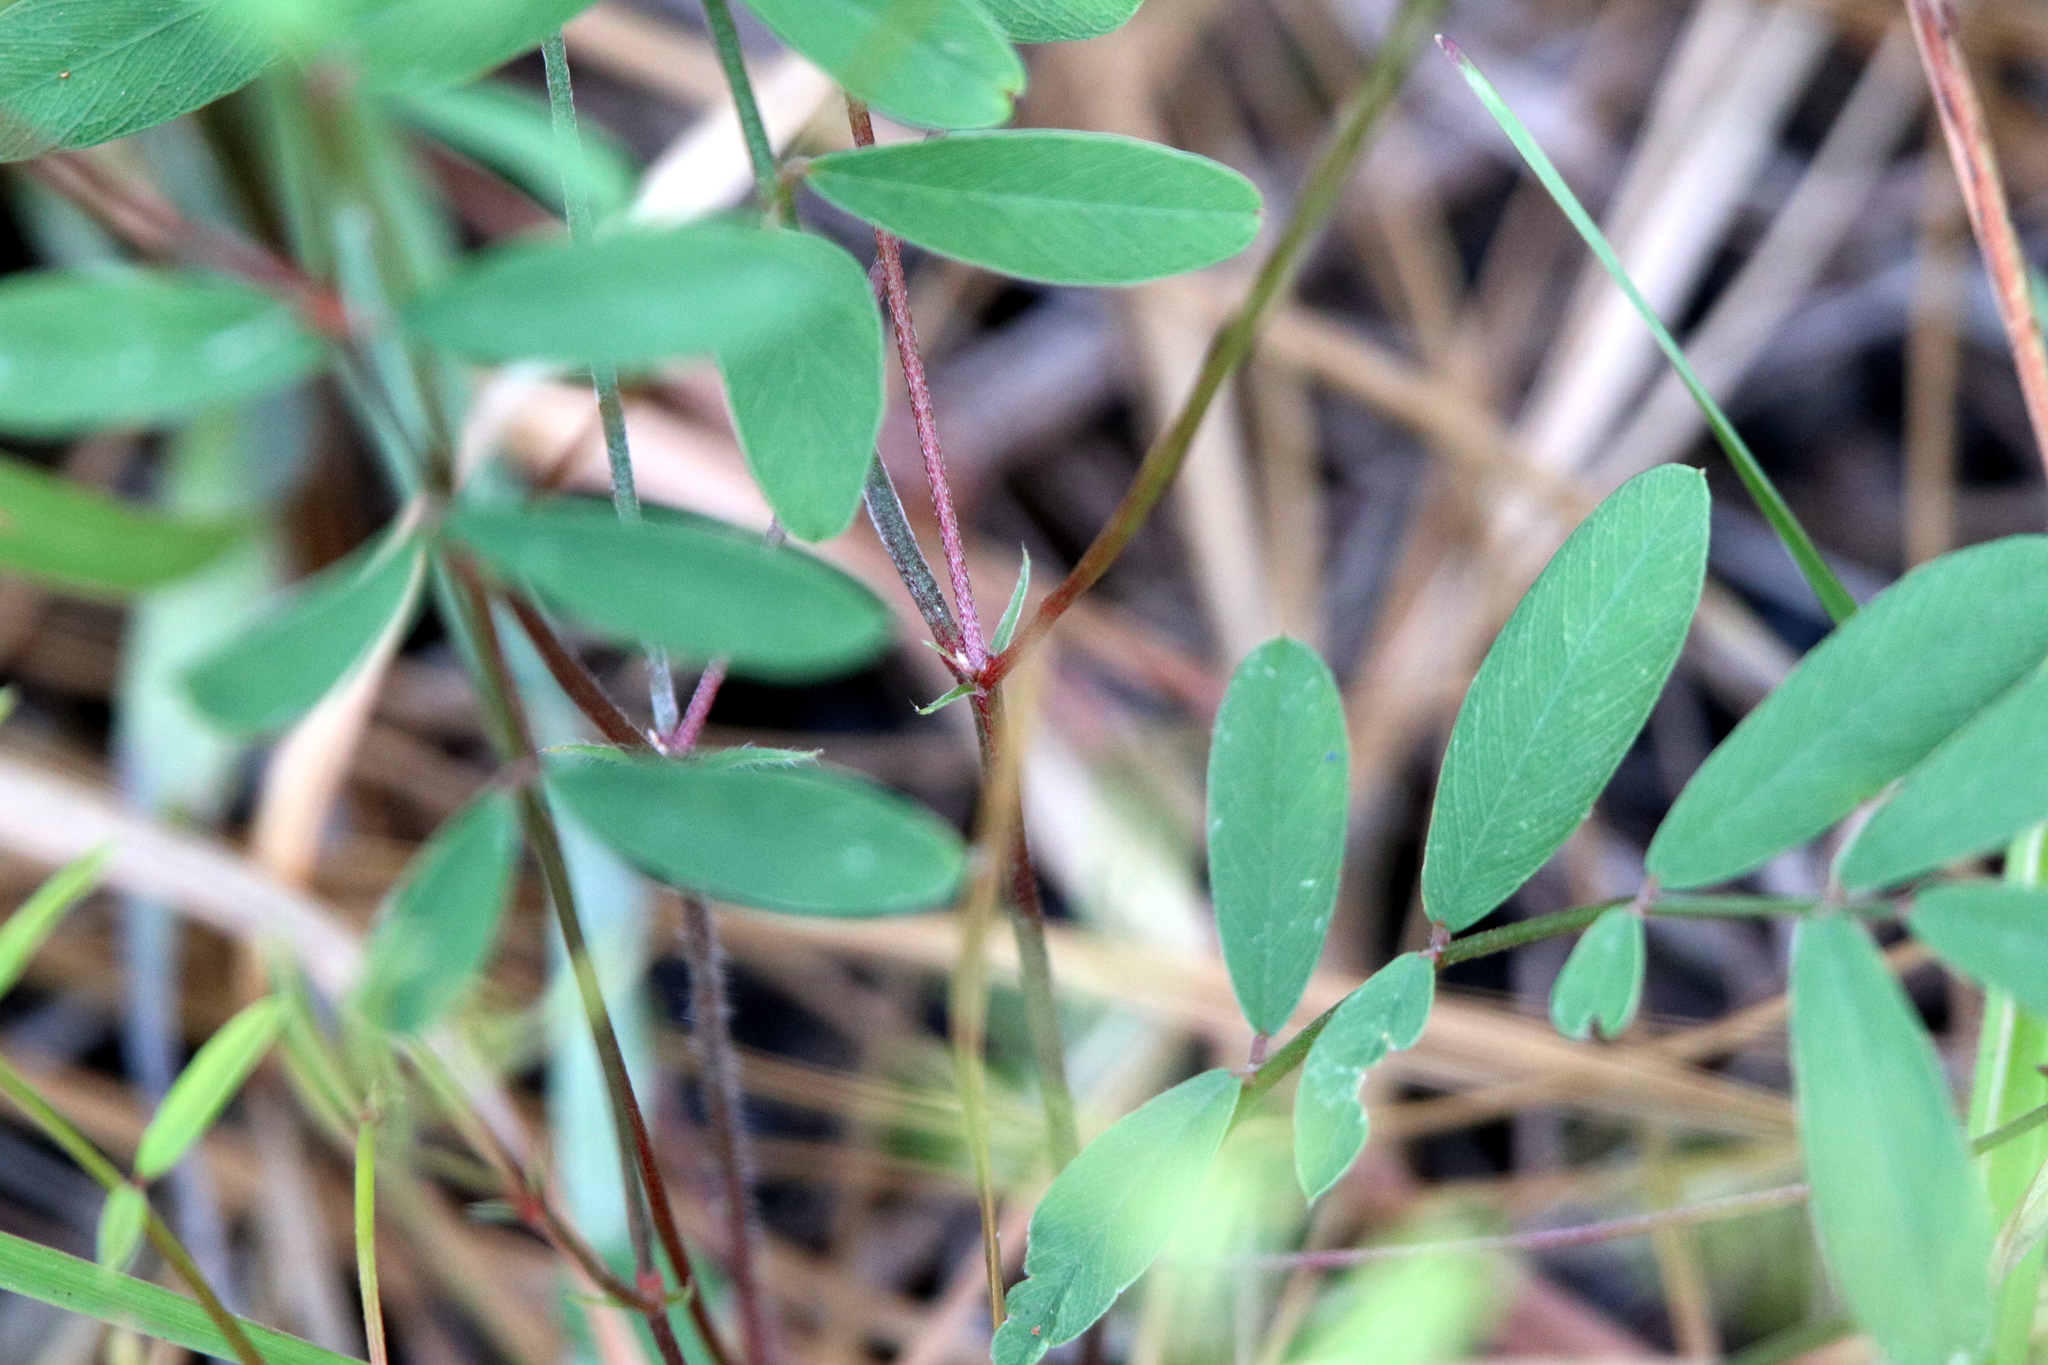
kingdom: Plantae
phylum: Tracheophyta
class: Magnoliopsida
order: Fabales
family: Fabaceae
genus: Tephrosia
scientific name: Tephrosia onobrychoides
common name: Multi-bloom hoary-pea
